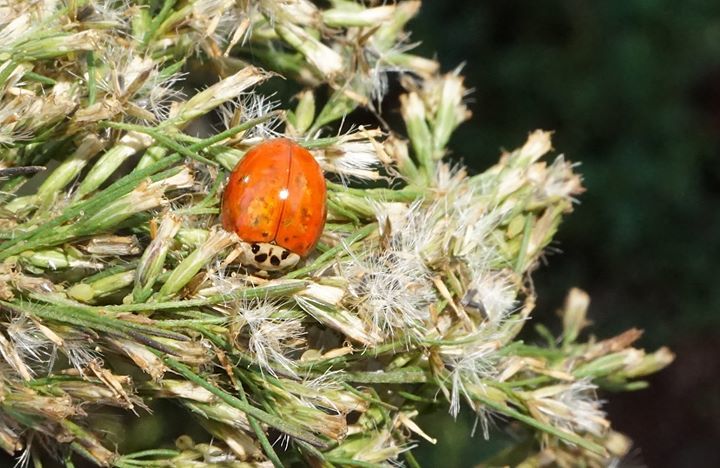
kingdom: Animalia
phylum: Arthropoda
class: Insecta
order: Coleoptera
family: Coccinellidae
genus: Harmonia
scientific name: Harmonia axyridis
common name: Harlequin ladybird
